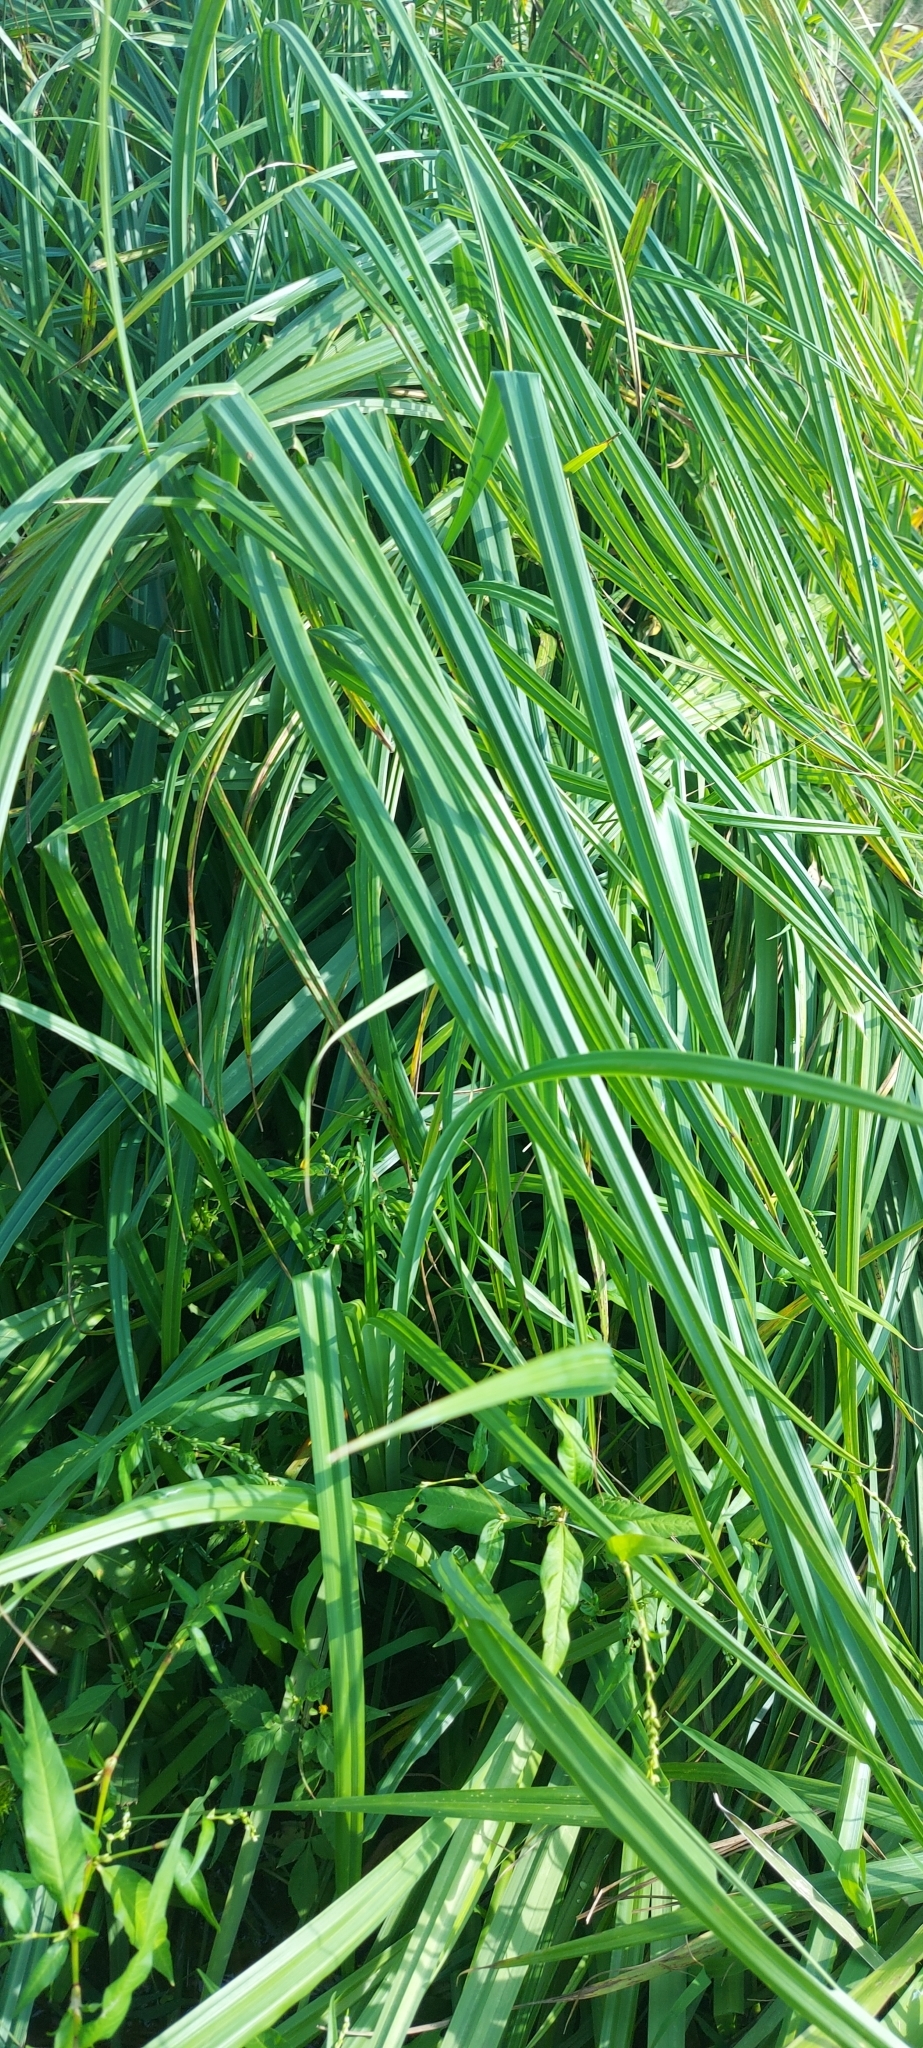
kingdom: Plantae
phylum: Tracheophyta
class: Liliopsida
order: Poales
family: Typhaceae
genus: Sparganium
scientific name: Sparganium erectum
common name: Branched bur-reed
